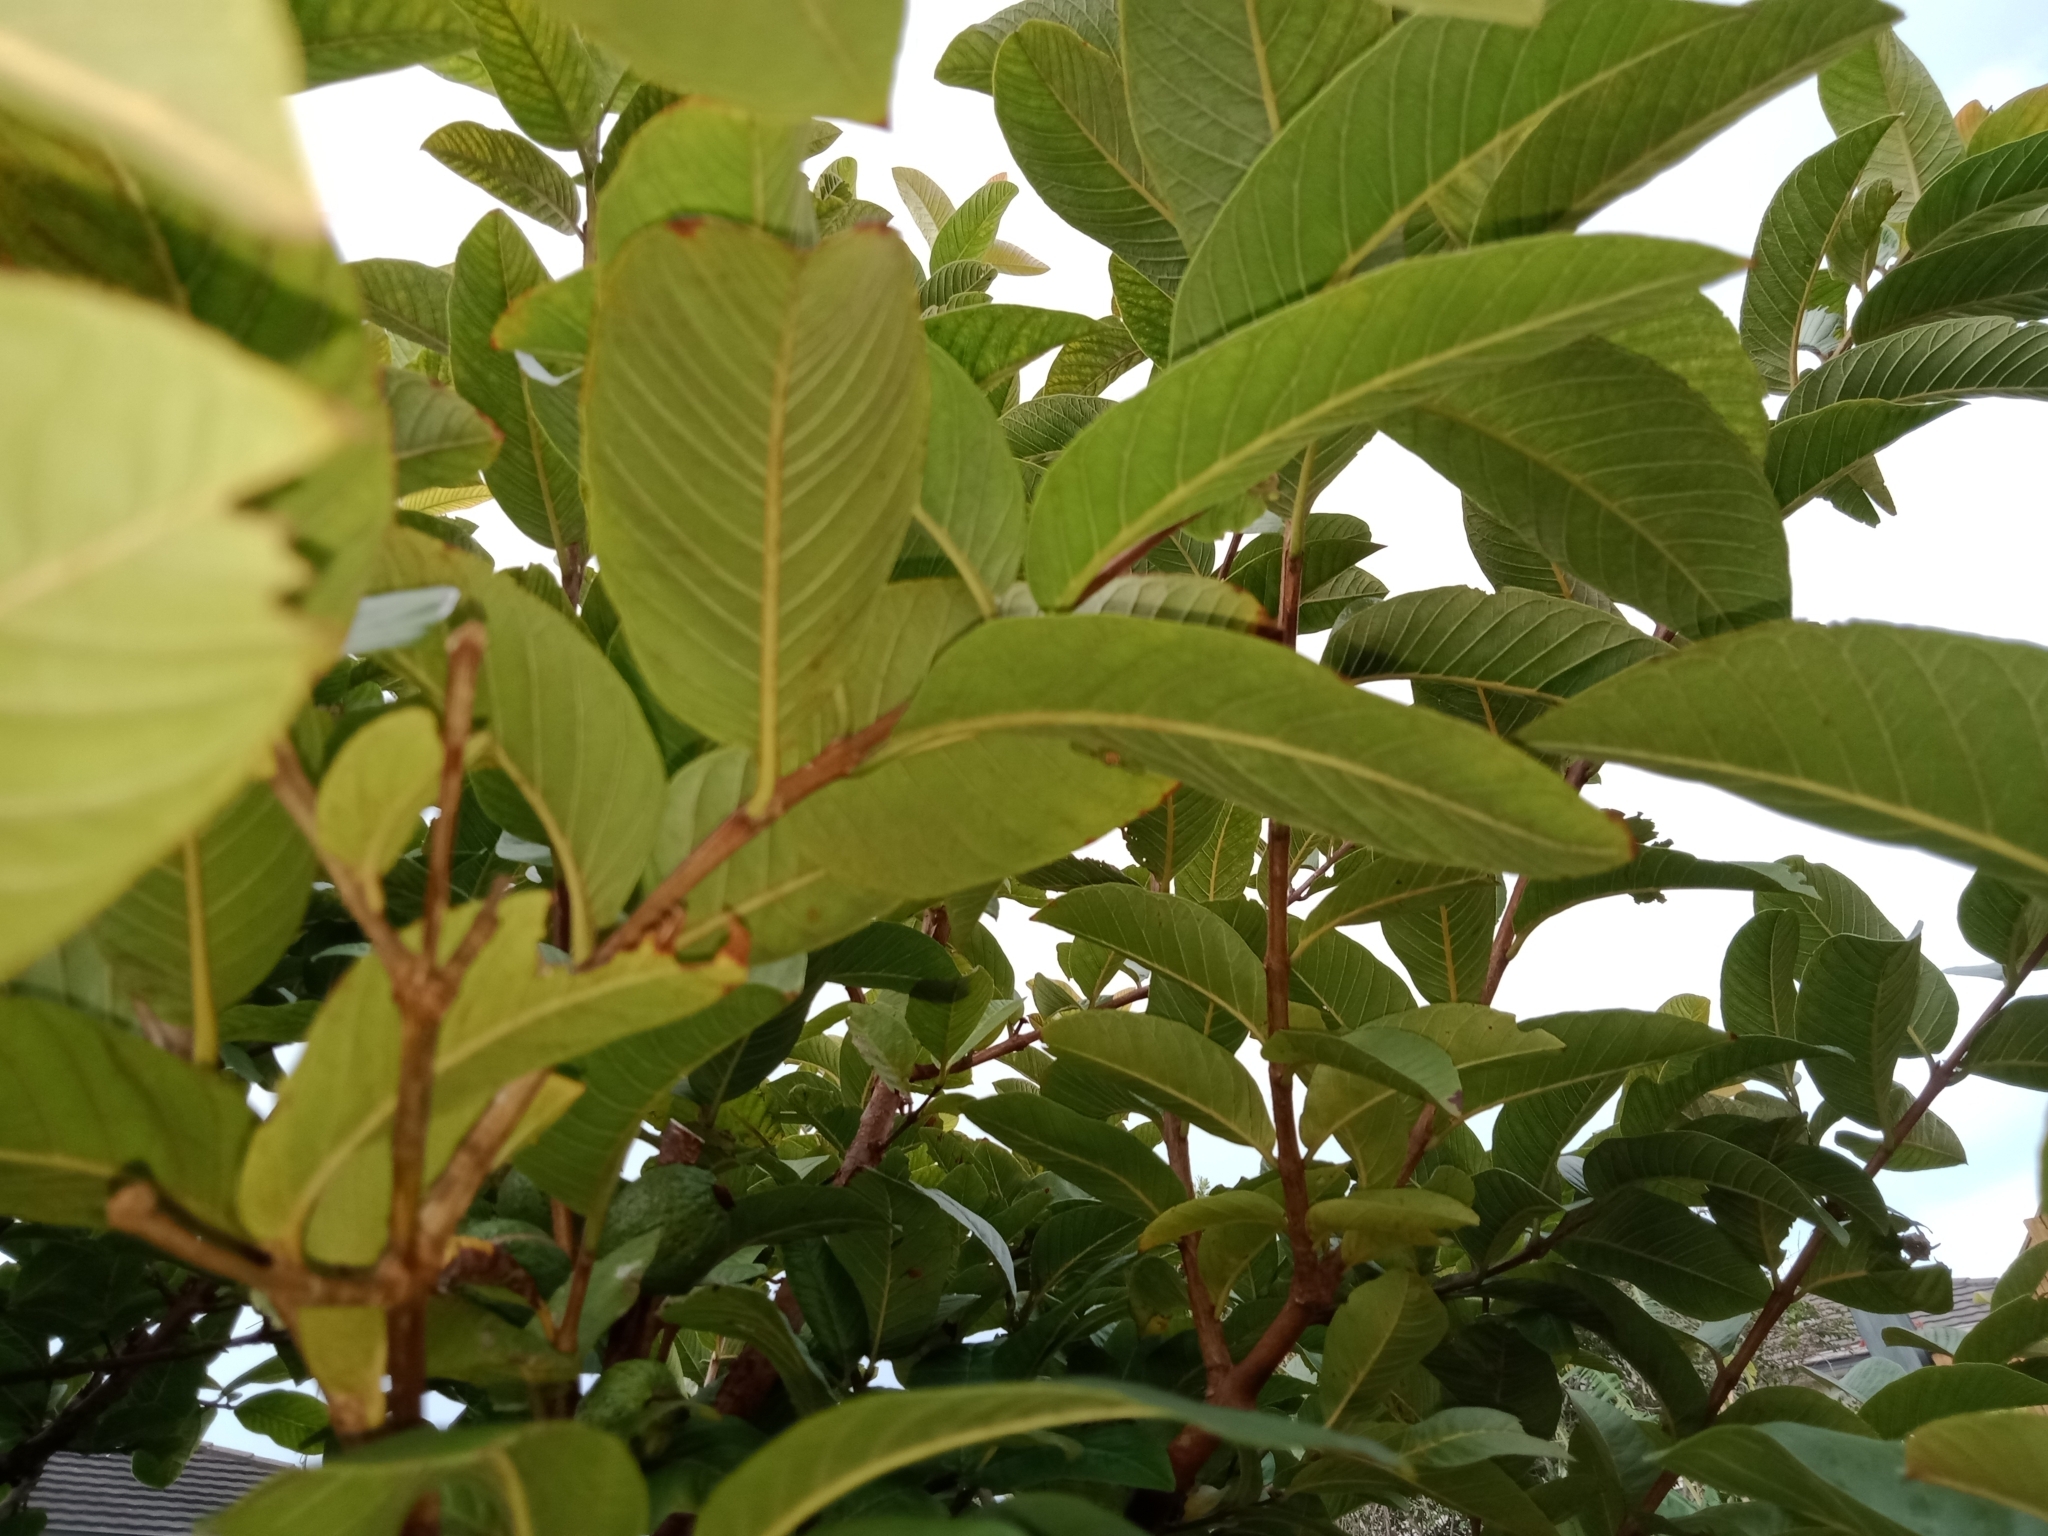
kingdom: Animalia
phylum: Arthropoda
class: Insecta
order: Diptera
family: Tephritidae
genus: Bactrocera
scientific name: Bactrocera tryoni
